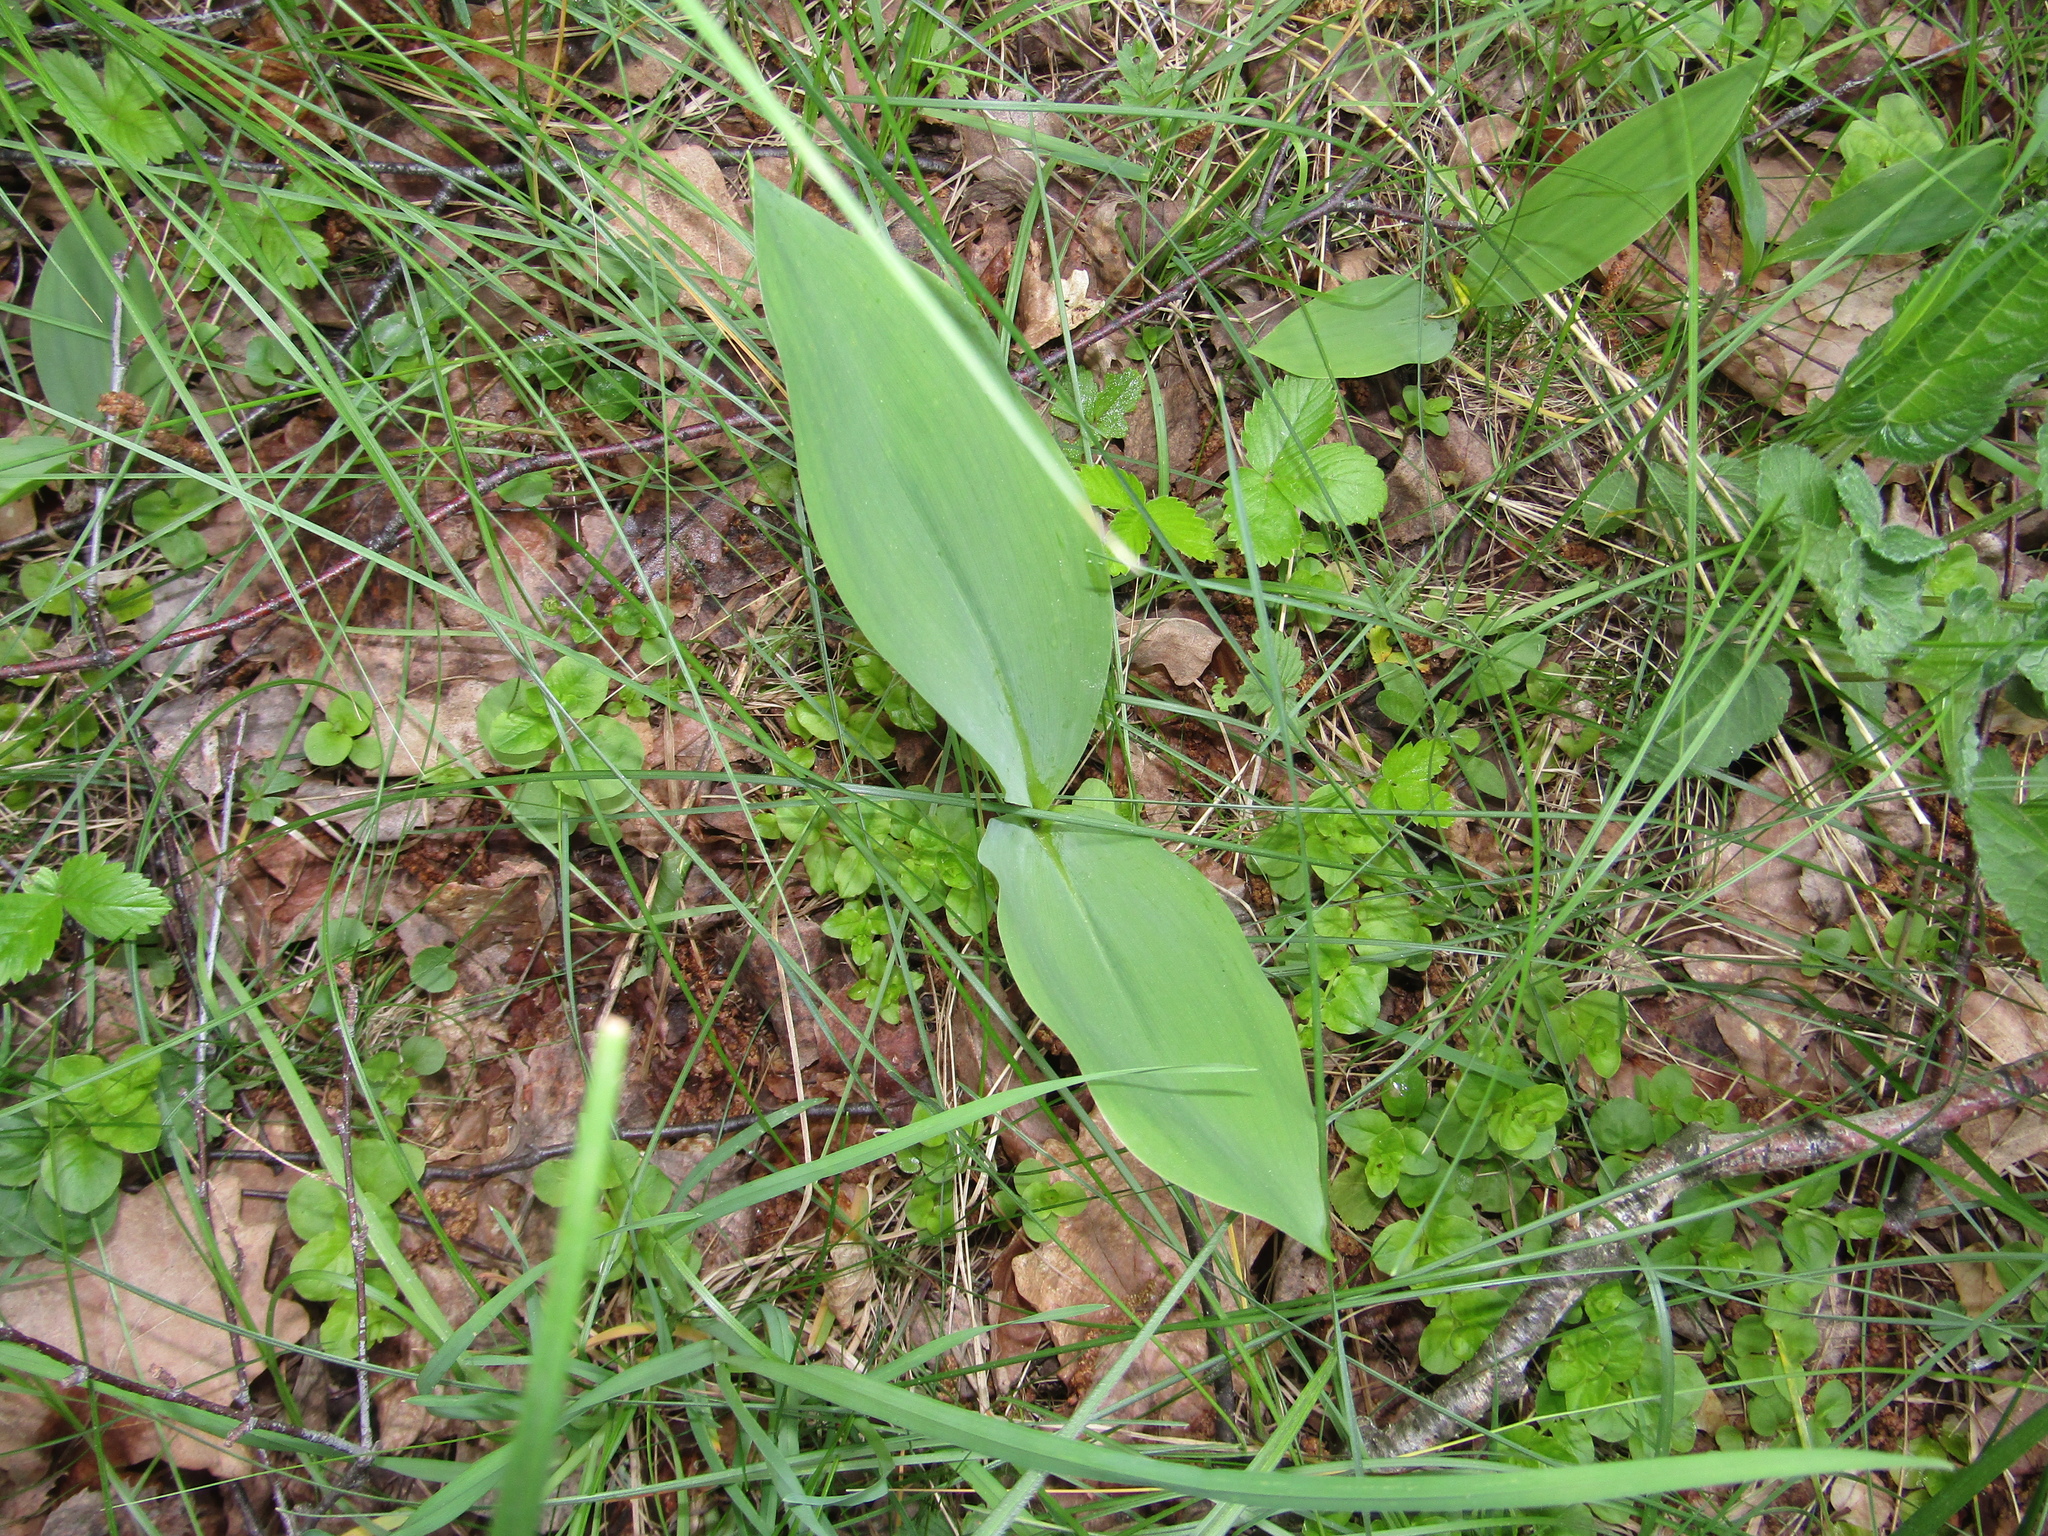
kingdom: Plantae
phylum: Tracheophyta
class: Liliopsida
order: Asparagales
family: Asparagaceae
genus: Convallaria
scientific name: Convallaria majalis
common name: Lily-of-the-valley
